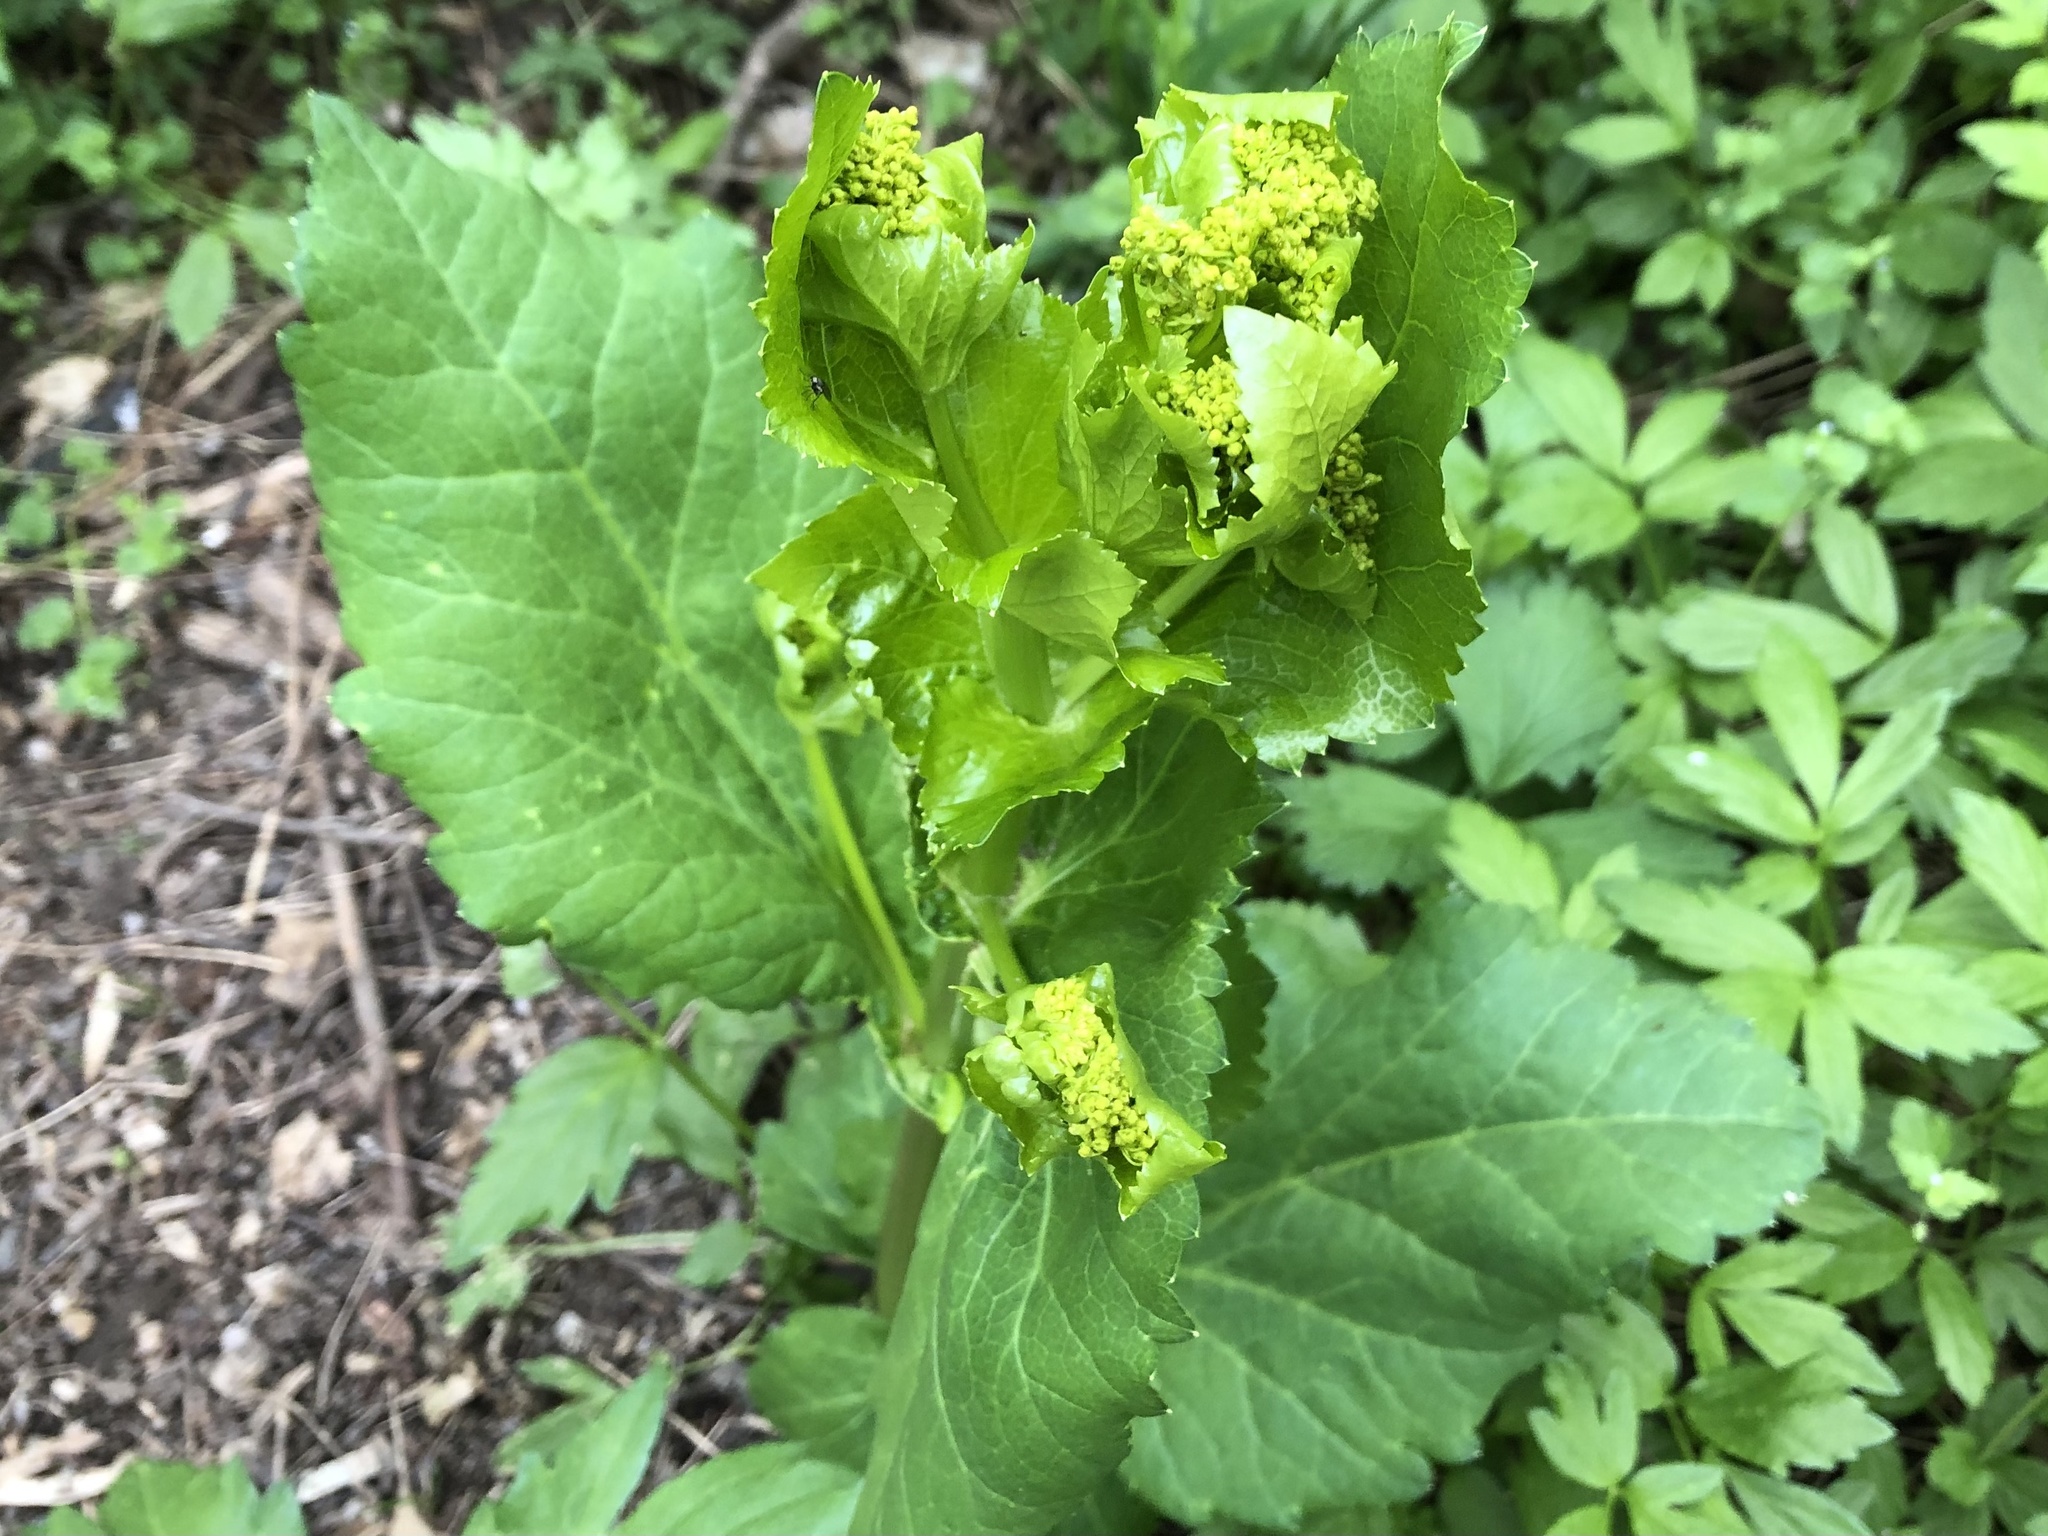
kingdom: Plantae
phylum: Tracheophyta
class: Magnoliopsida
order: Apiales
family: Apiaceae
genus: Smyrnium
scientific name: Smyrnium perfoliatum
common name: Perfoliate alexanders
